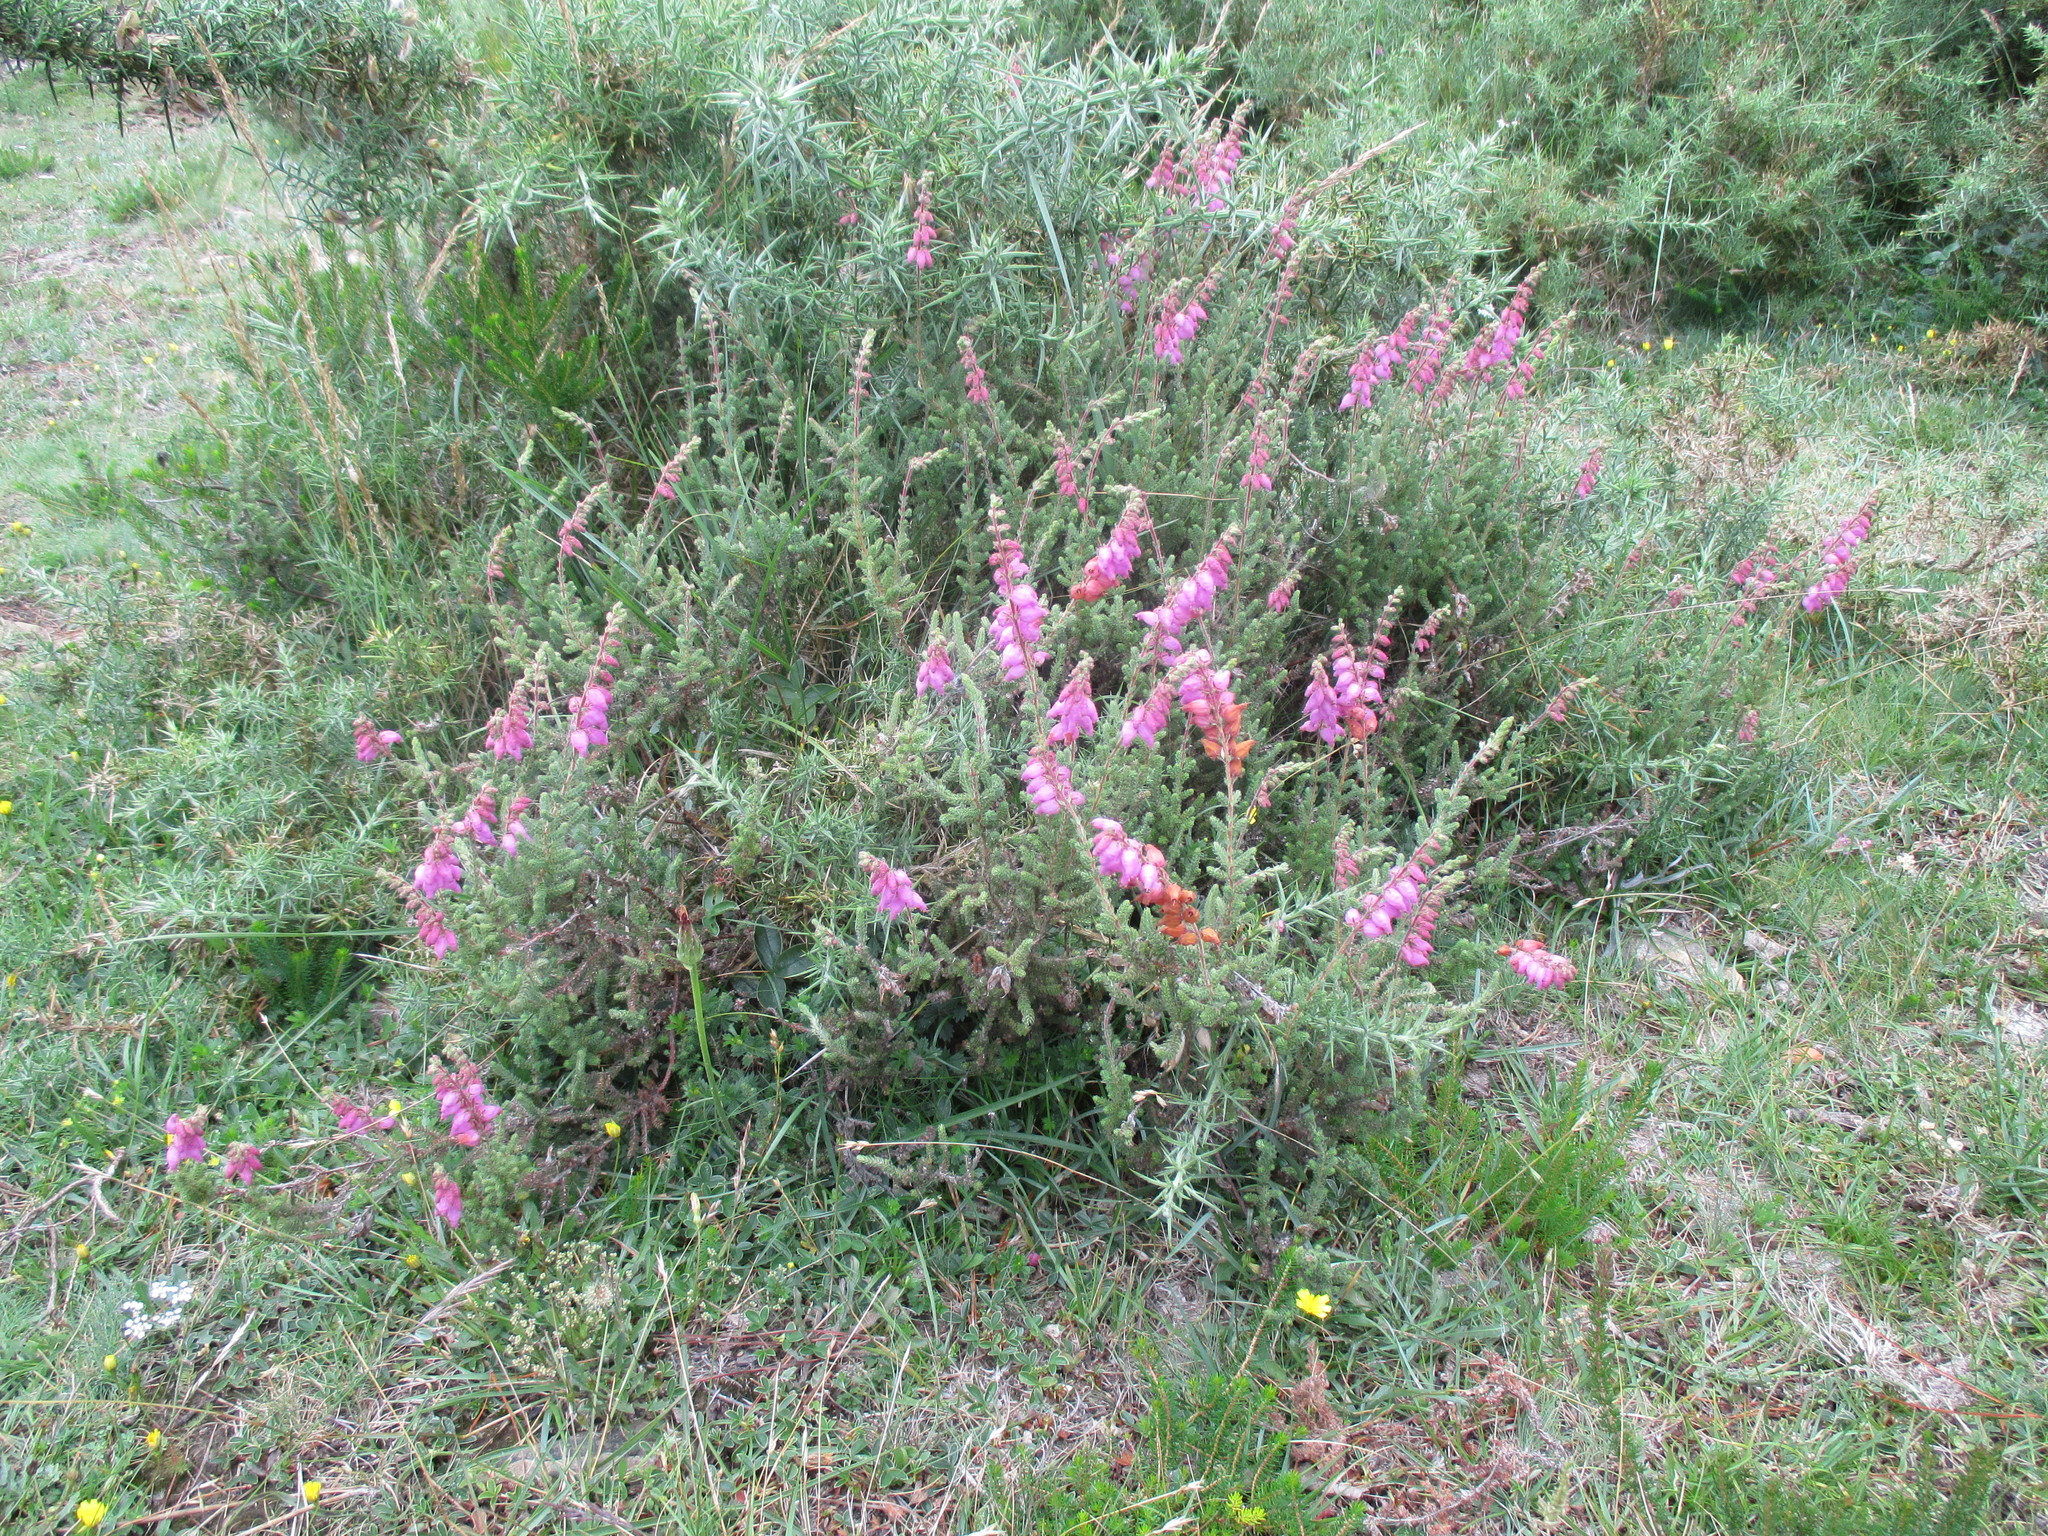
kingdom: Plantae
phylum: Tracheophyta
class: Magnoliopsida
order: Ericales
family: Ericaceae
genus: Erica
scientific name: Erica ciliaris
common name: Dorset heath
